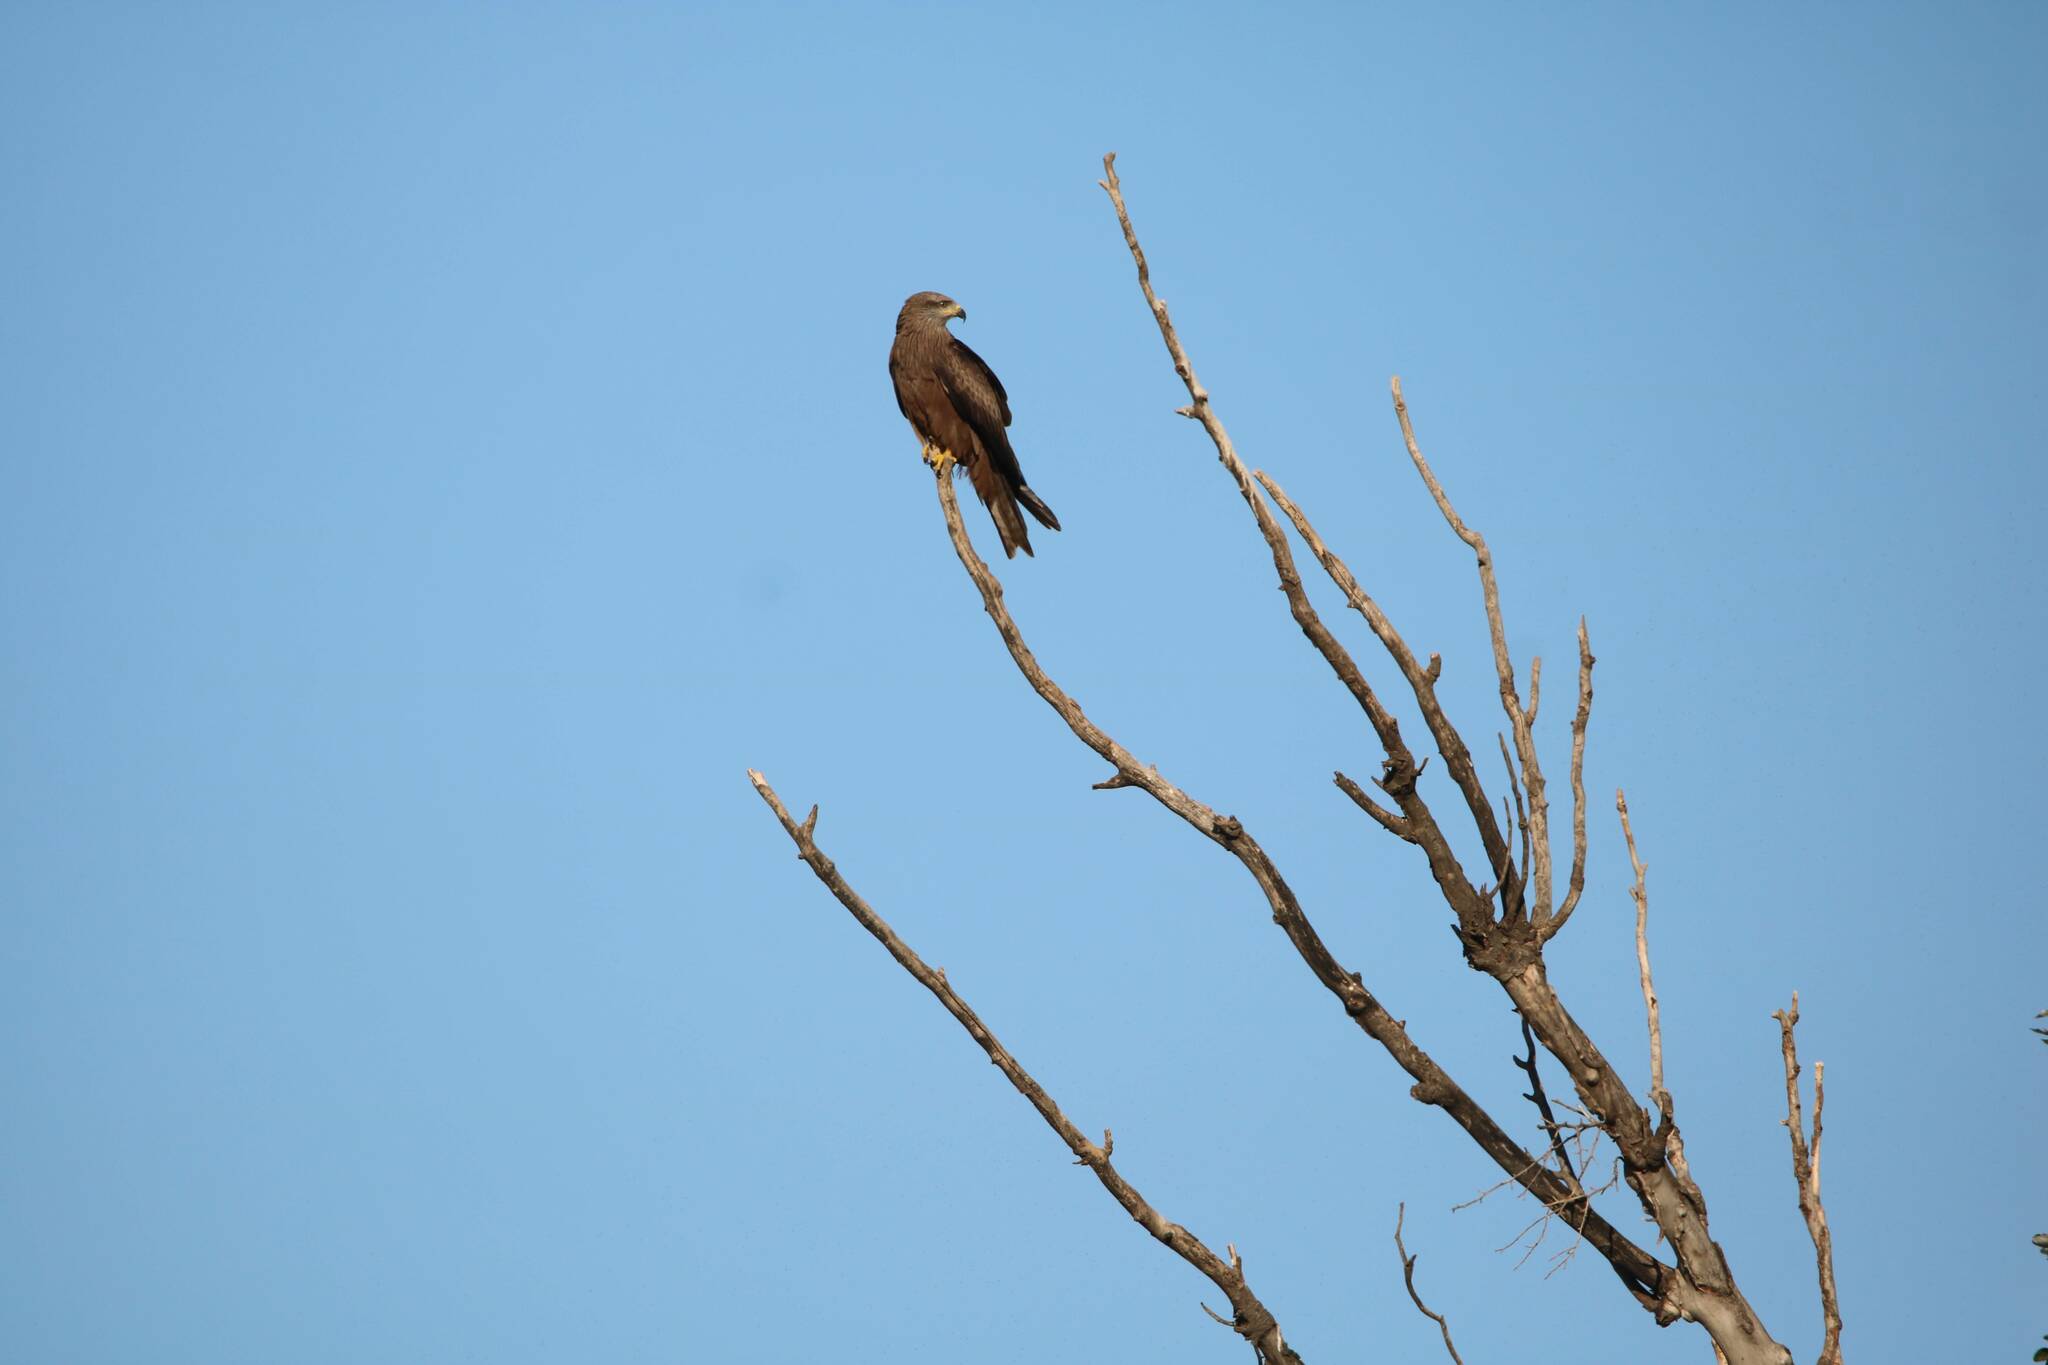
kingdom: Animalia
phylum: Chordata
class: Aves
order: Accipitriformes
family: Accipitridae
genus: Milvus
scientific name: Milvus migrans
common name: Black kite
